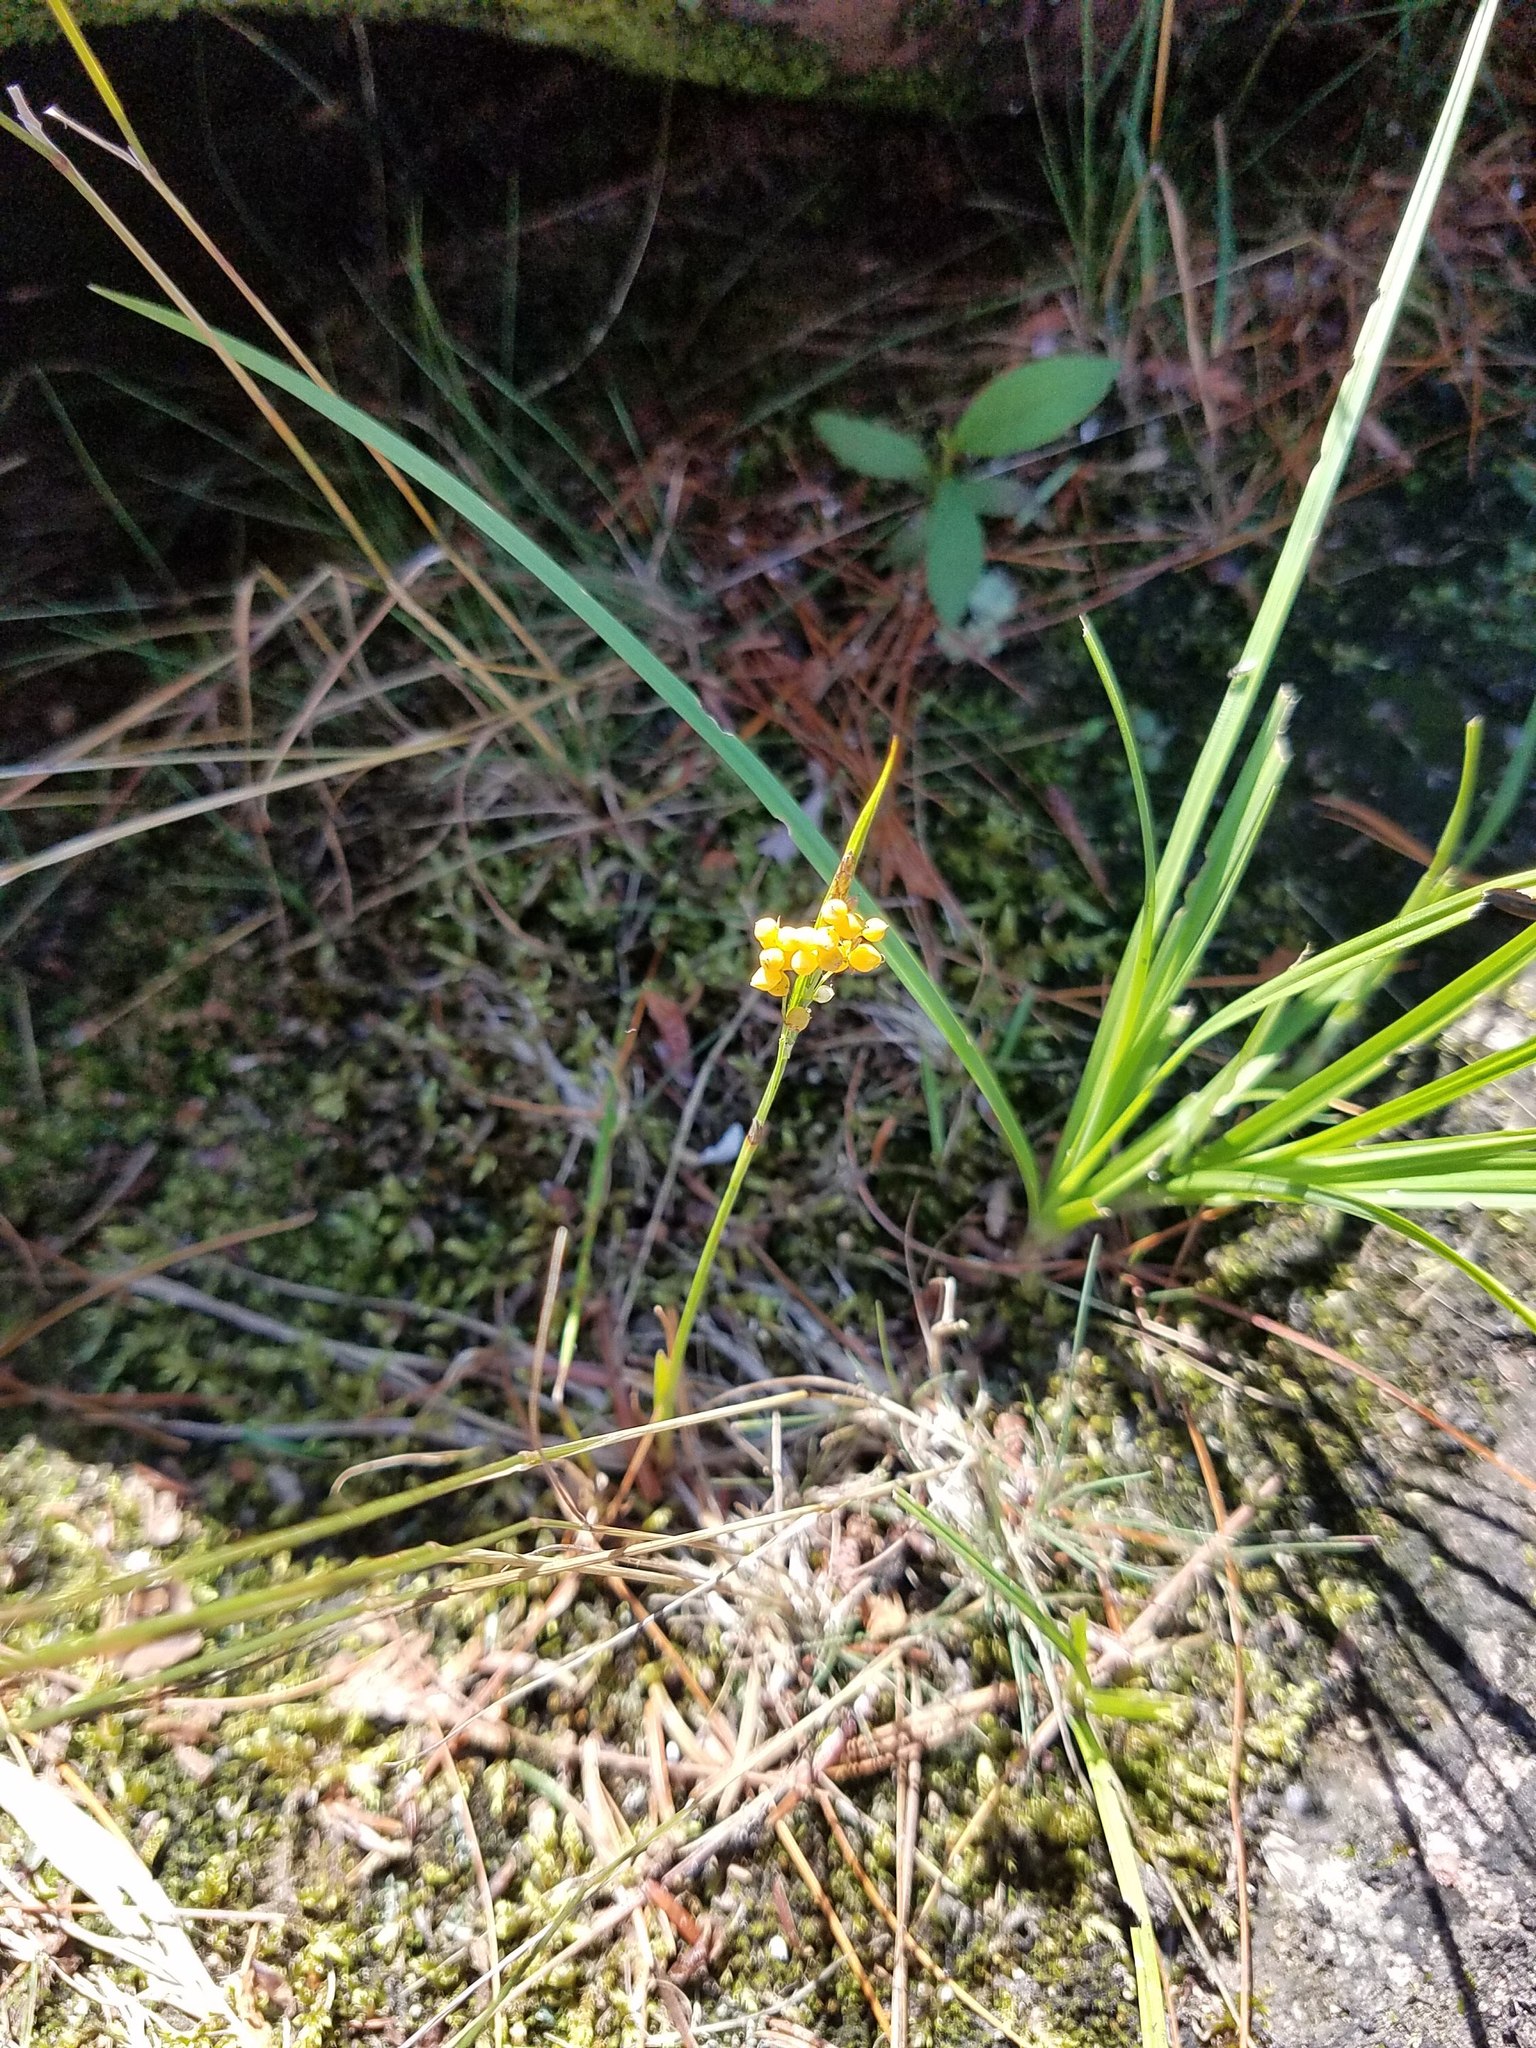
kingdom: Plantae
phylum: Tracheophyta
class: Liliopsida
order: Poales
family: Cyperaceae
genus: Carex
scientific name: Carex aurea
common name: Golden sedge
